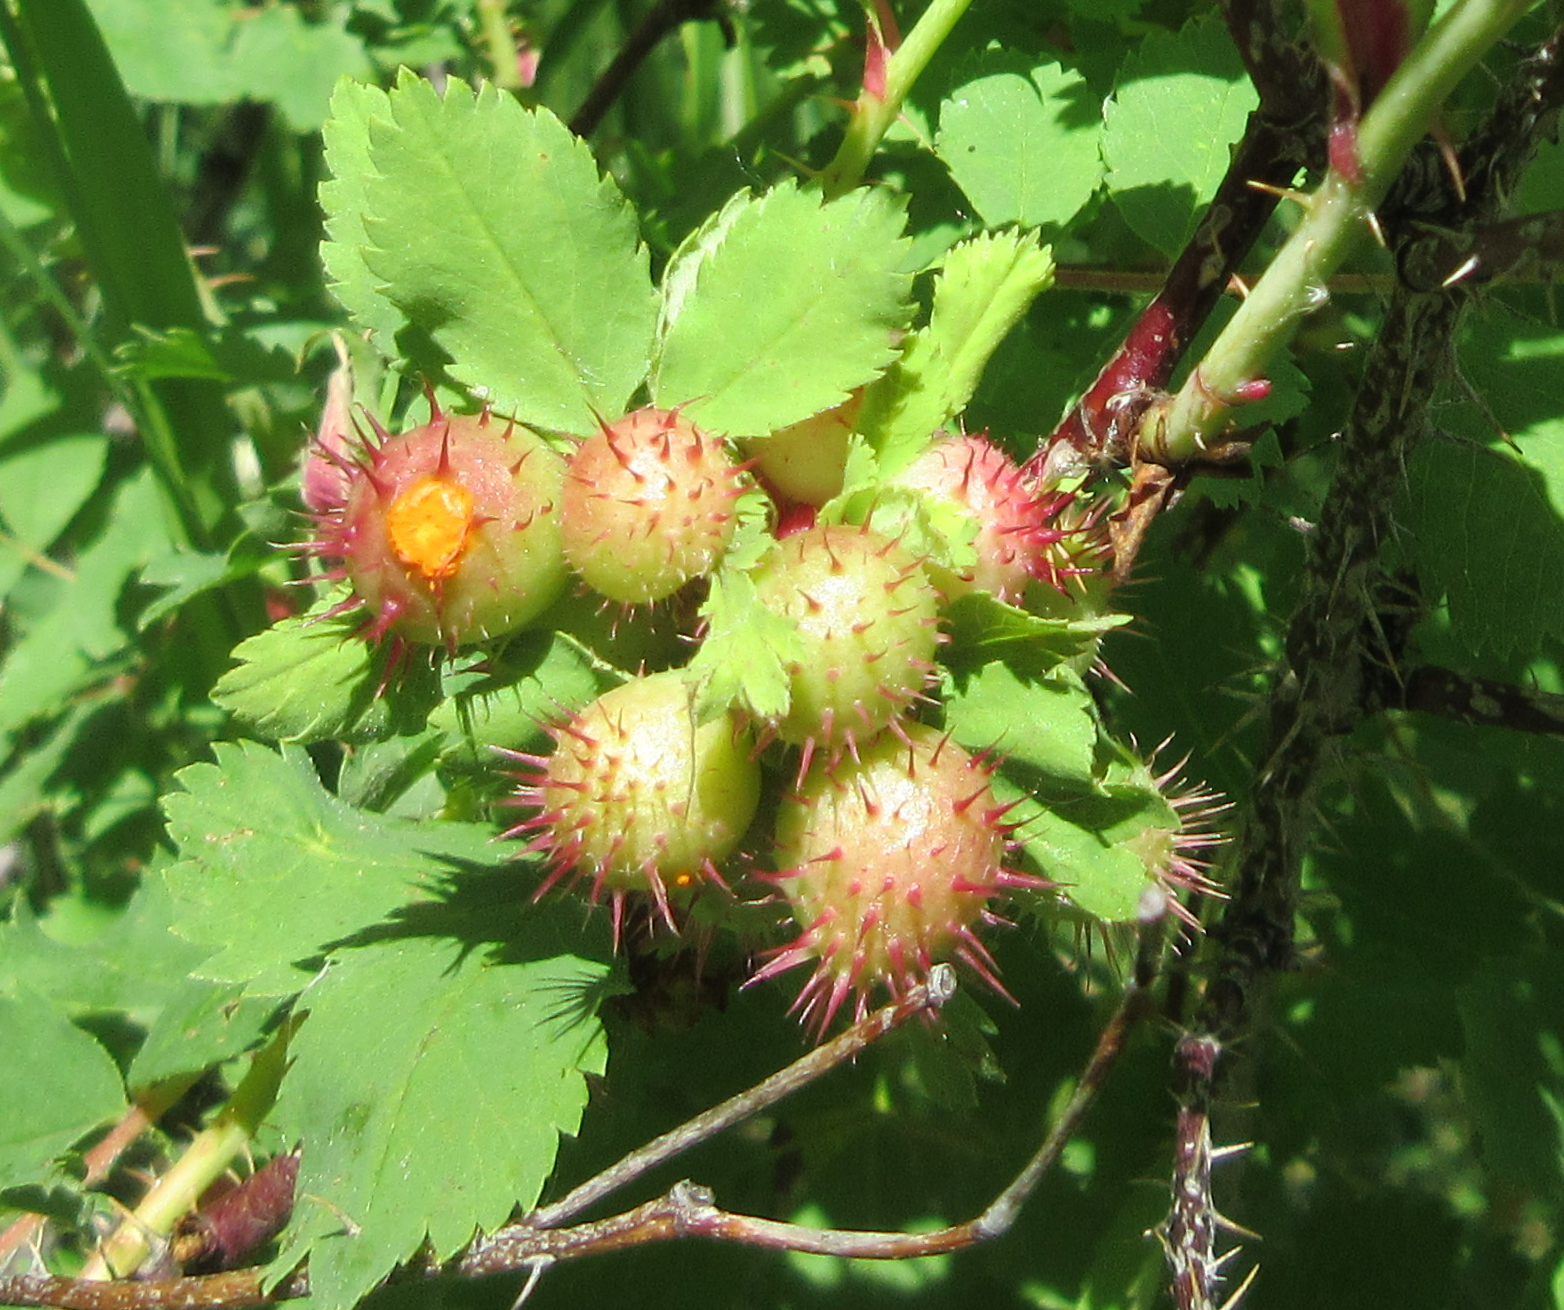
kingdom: Animalia
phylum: Arthropoda
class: Insecta
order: Hymenoptera
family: Cynipidae
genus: Diplolepis
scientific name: Diplolepis polita
